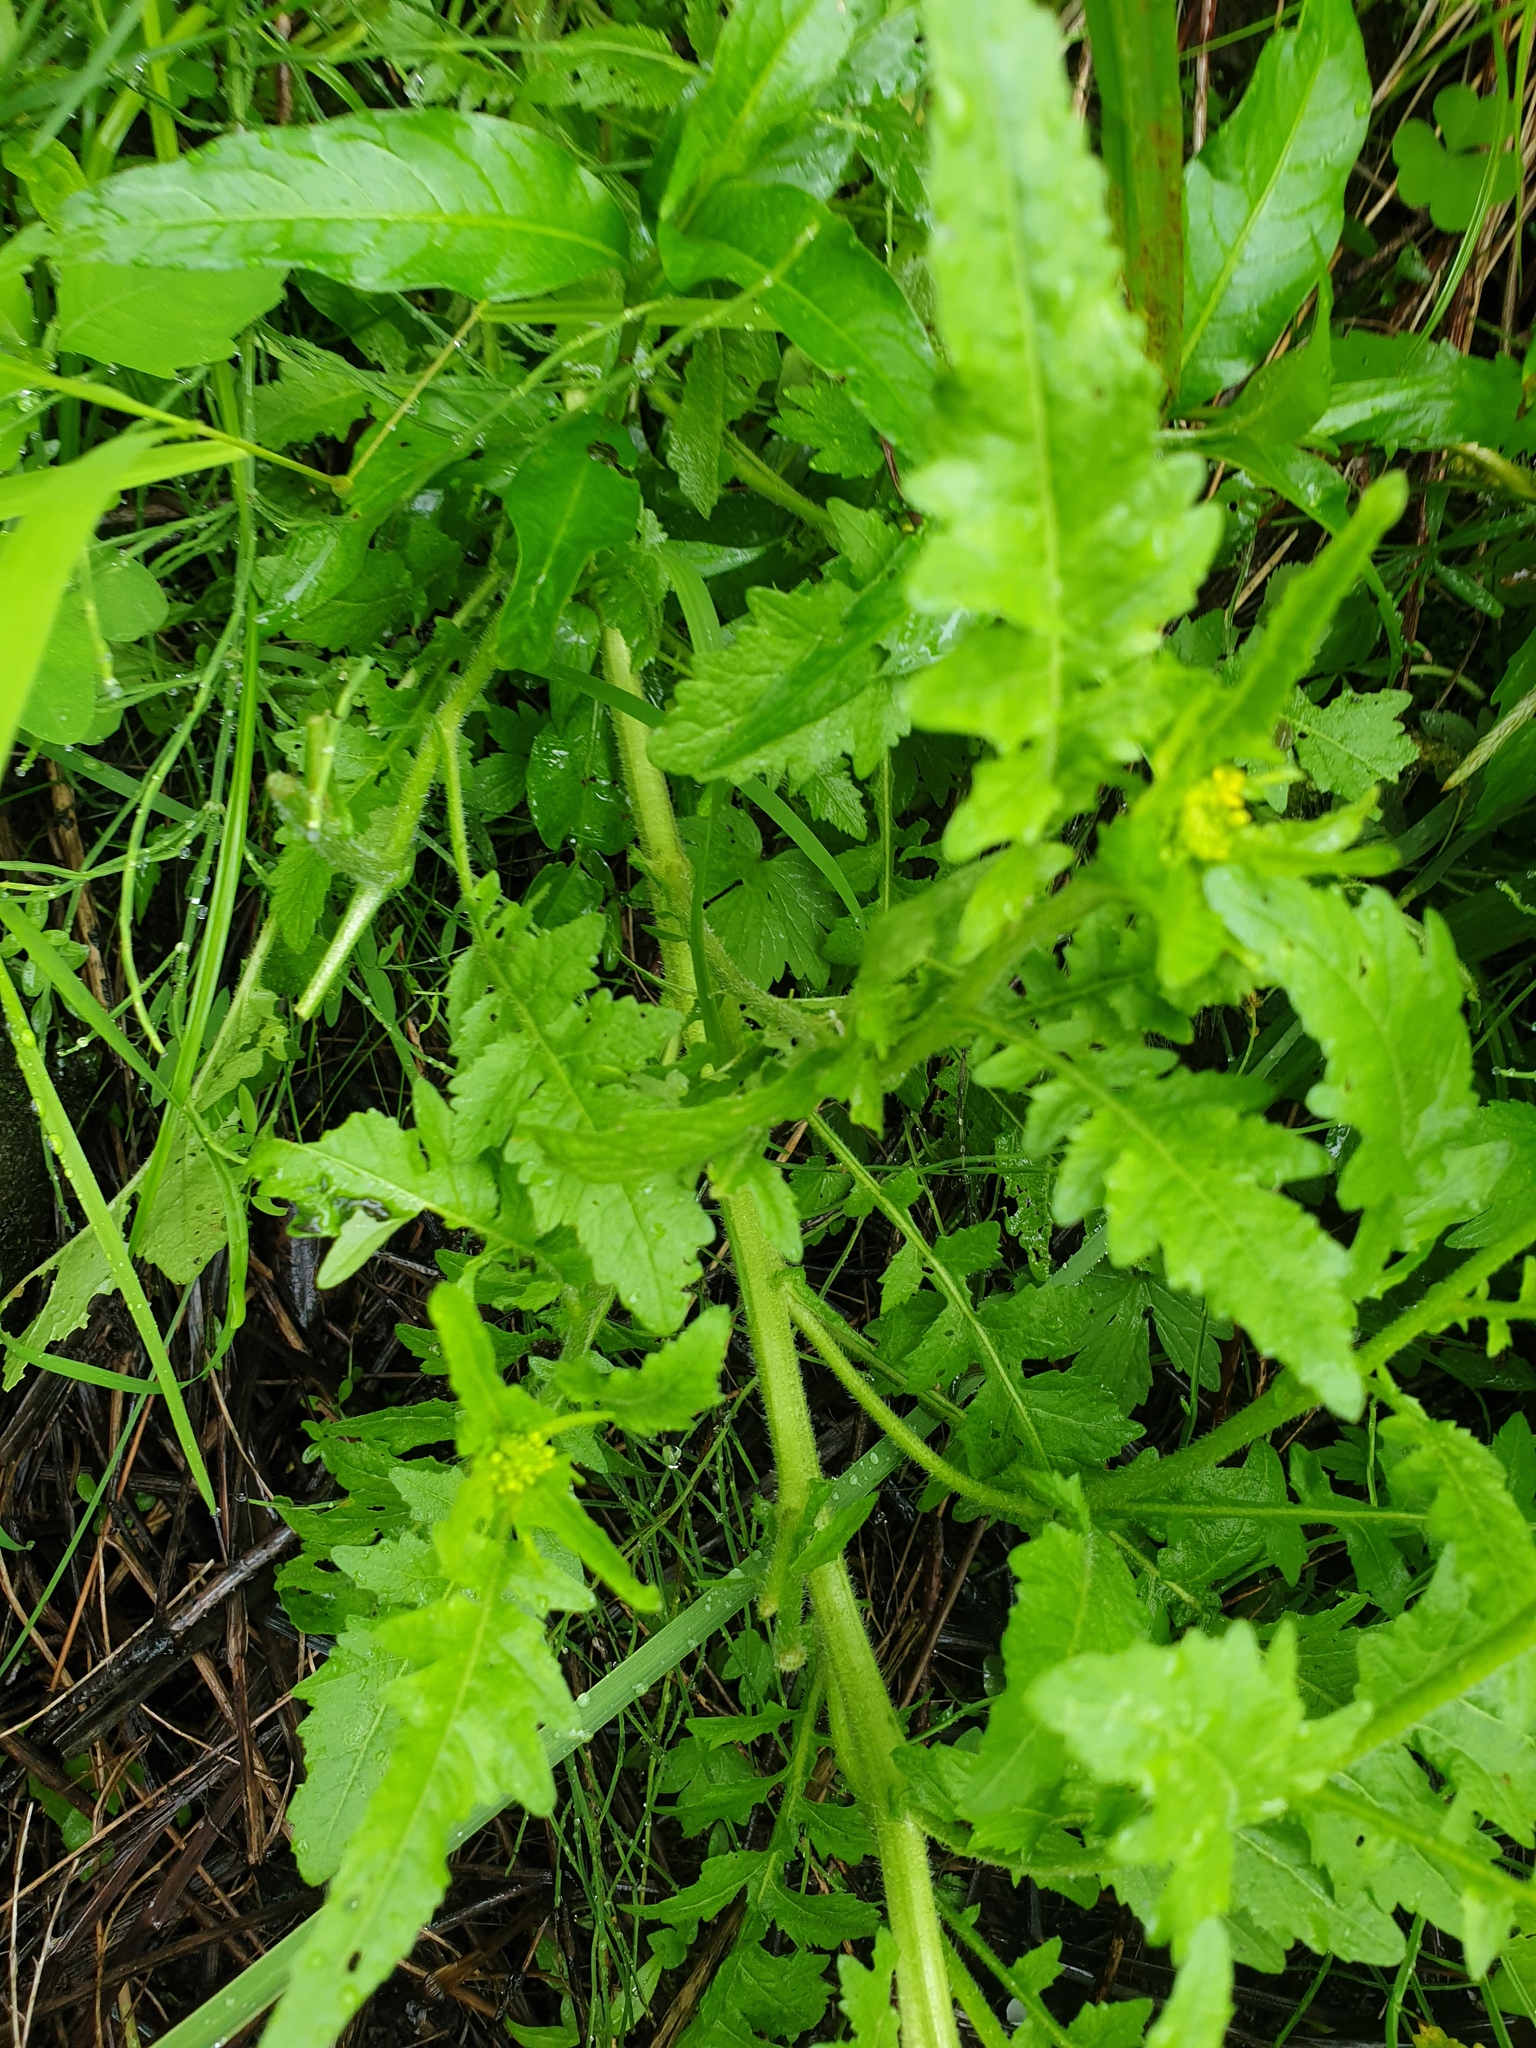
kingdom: Plantae
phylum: Tracheophyta
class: Magnoliopsida
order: Brassicales
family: Brassicaceae
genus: Rorippa
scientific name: Rorippa hispida
